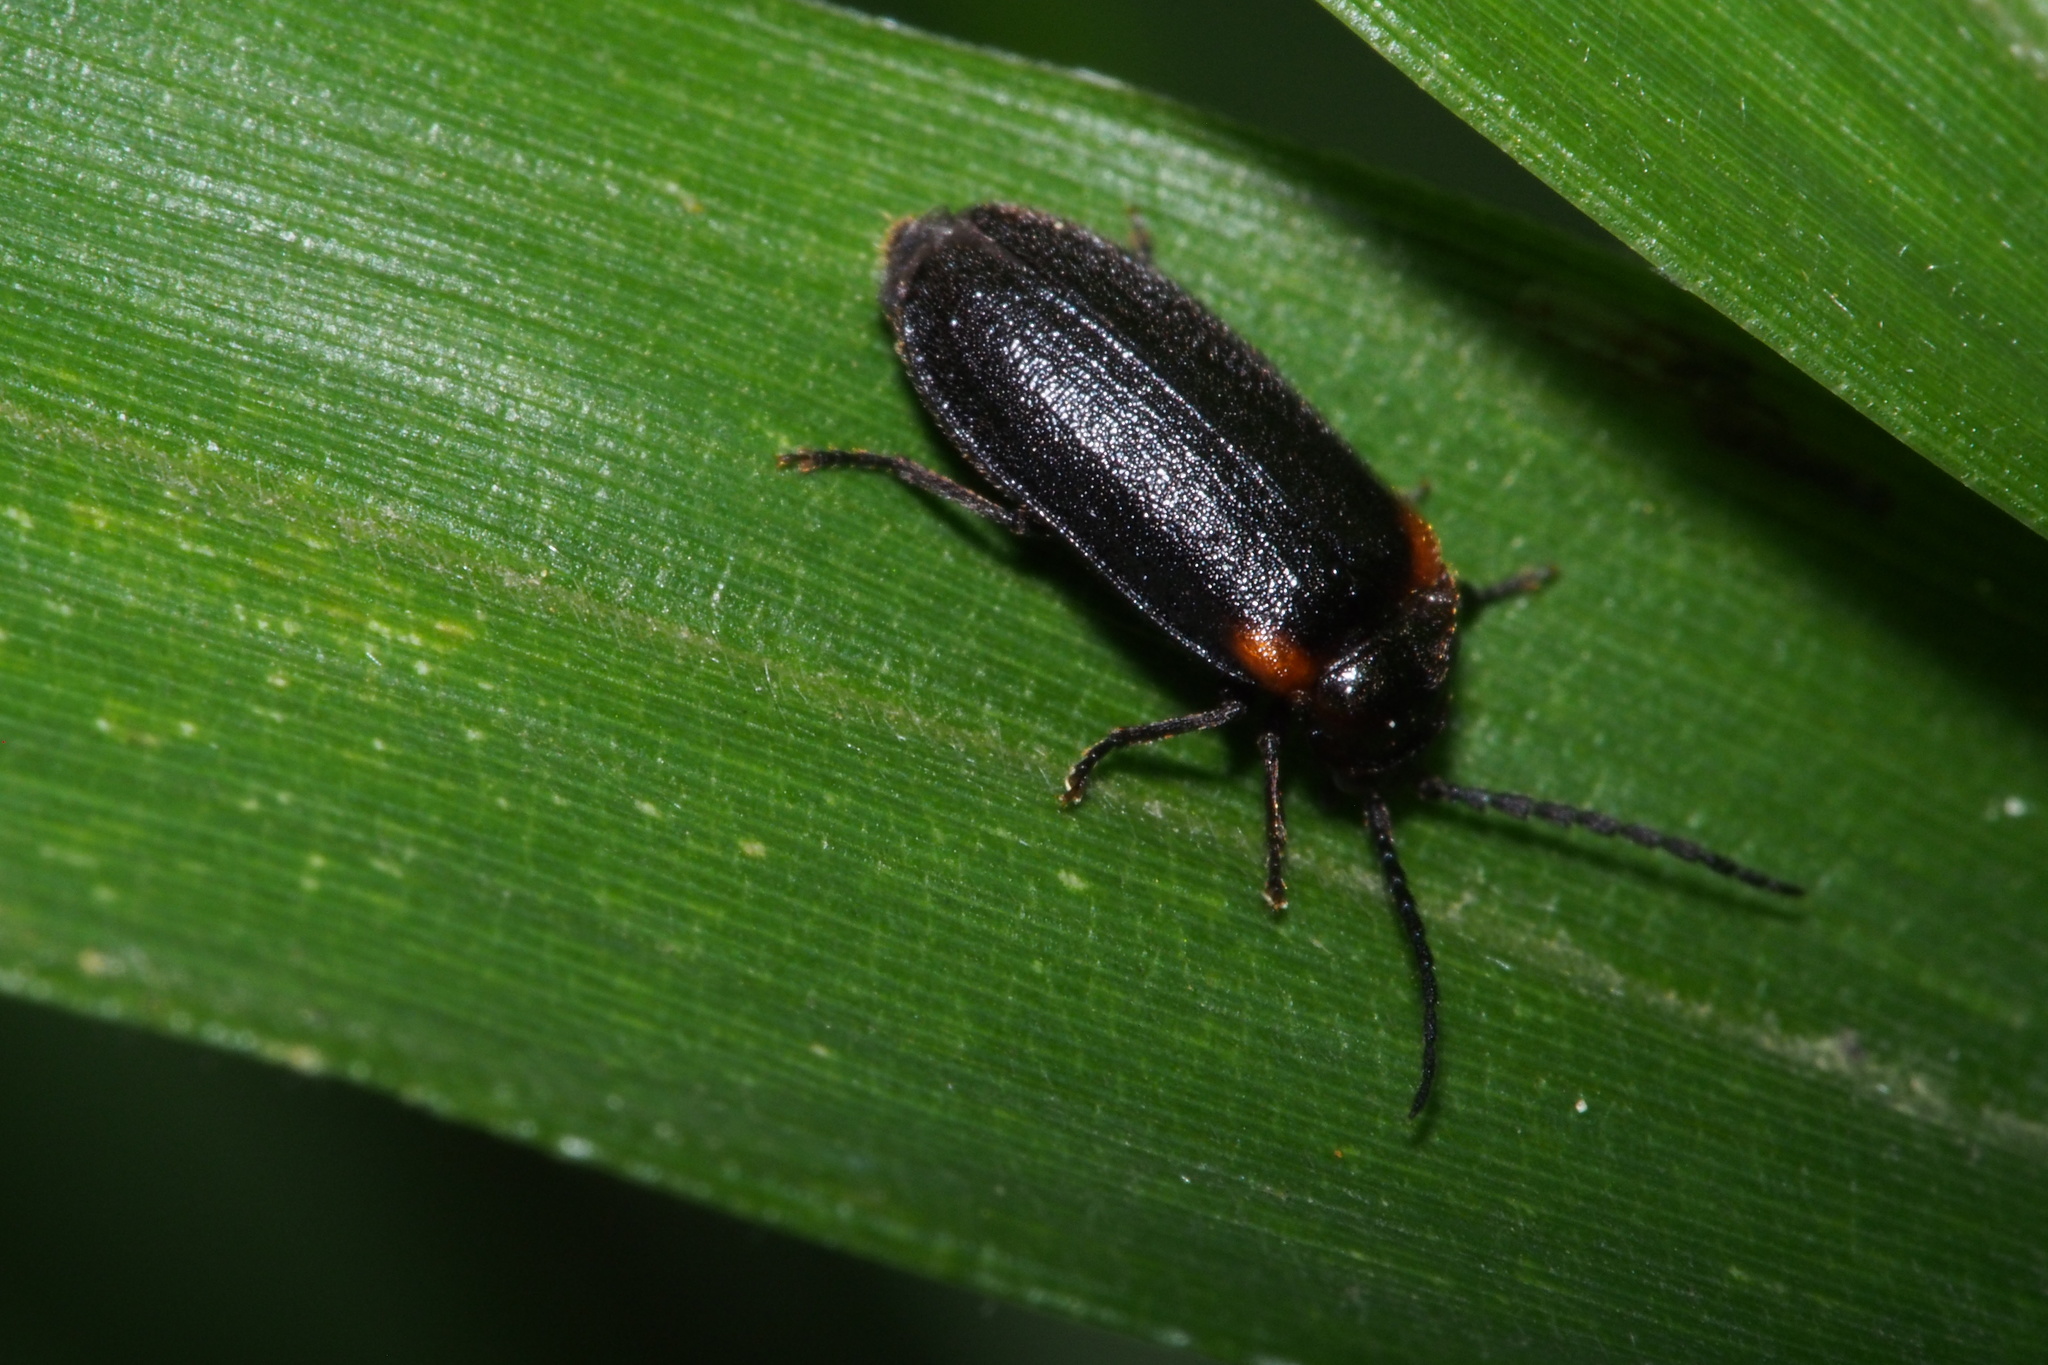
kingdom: Animalia
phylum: Arthropoda
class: Insecta
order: Coleoptera
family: Lampyridae
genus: Drilaster
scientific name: Drilaster axillaris
